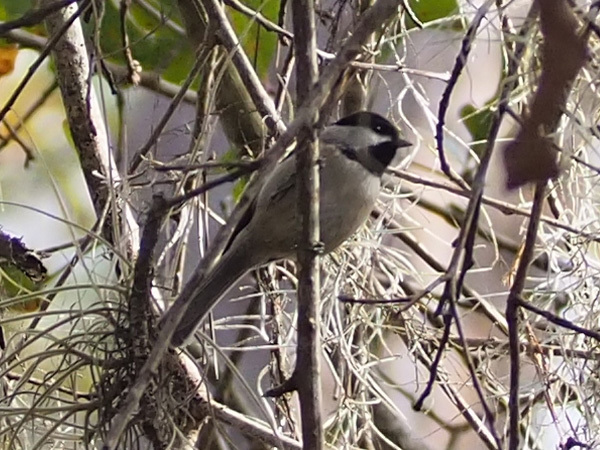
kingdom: Animalia
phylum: Chordata
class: Aves
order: Passeriformes
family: Paridae
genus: Poecile
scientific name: Poecile carolinensis
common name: Carolina chickadee
